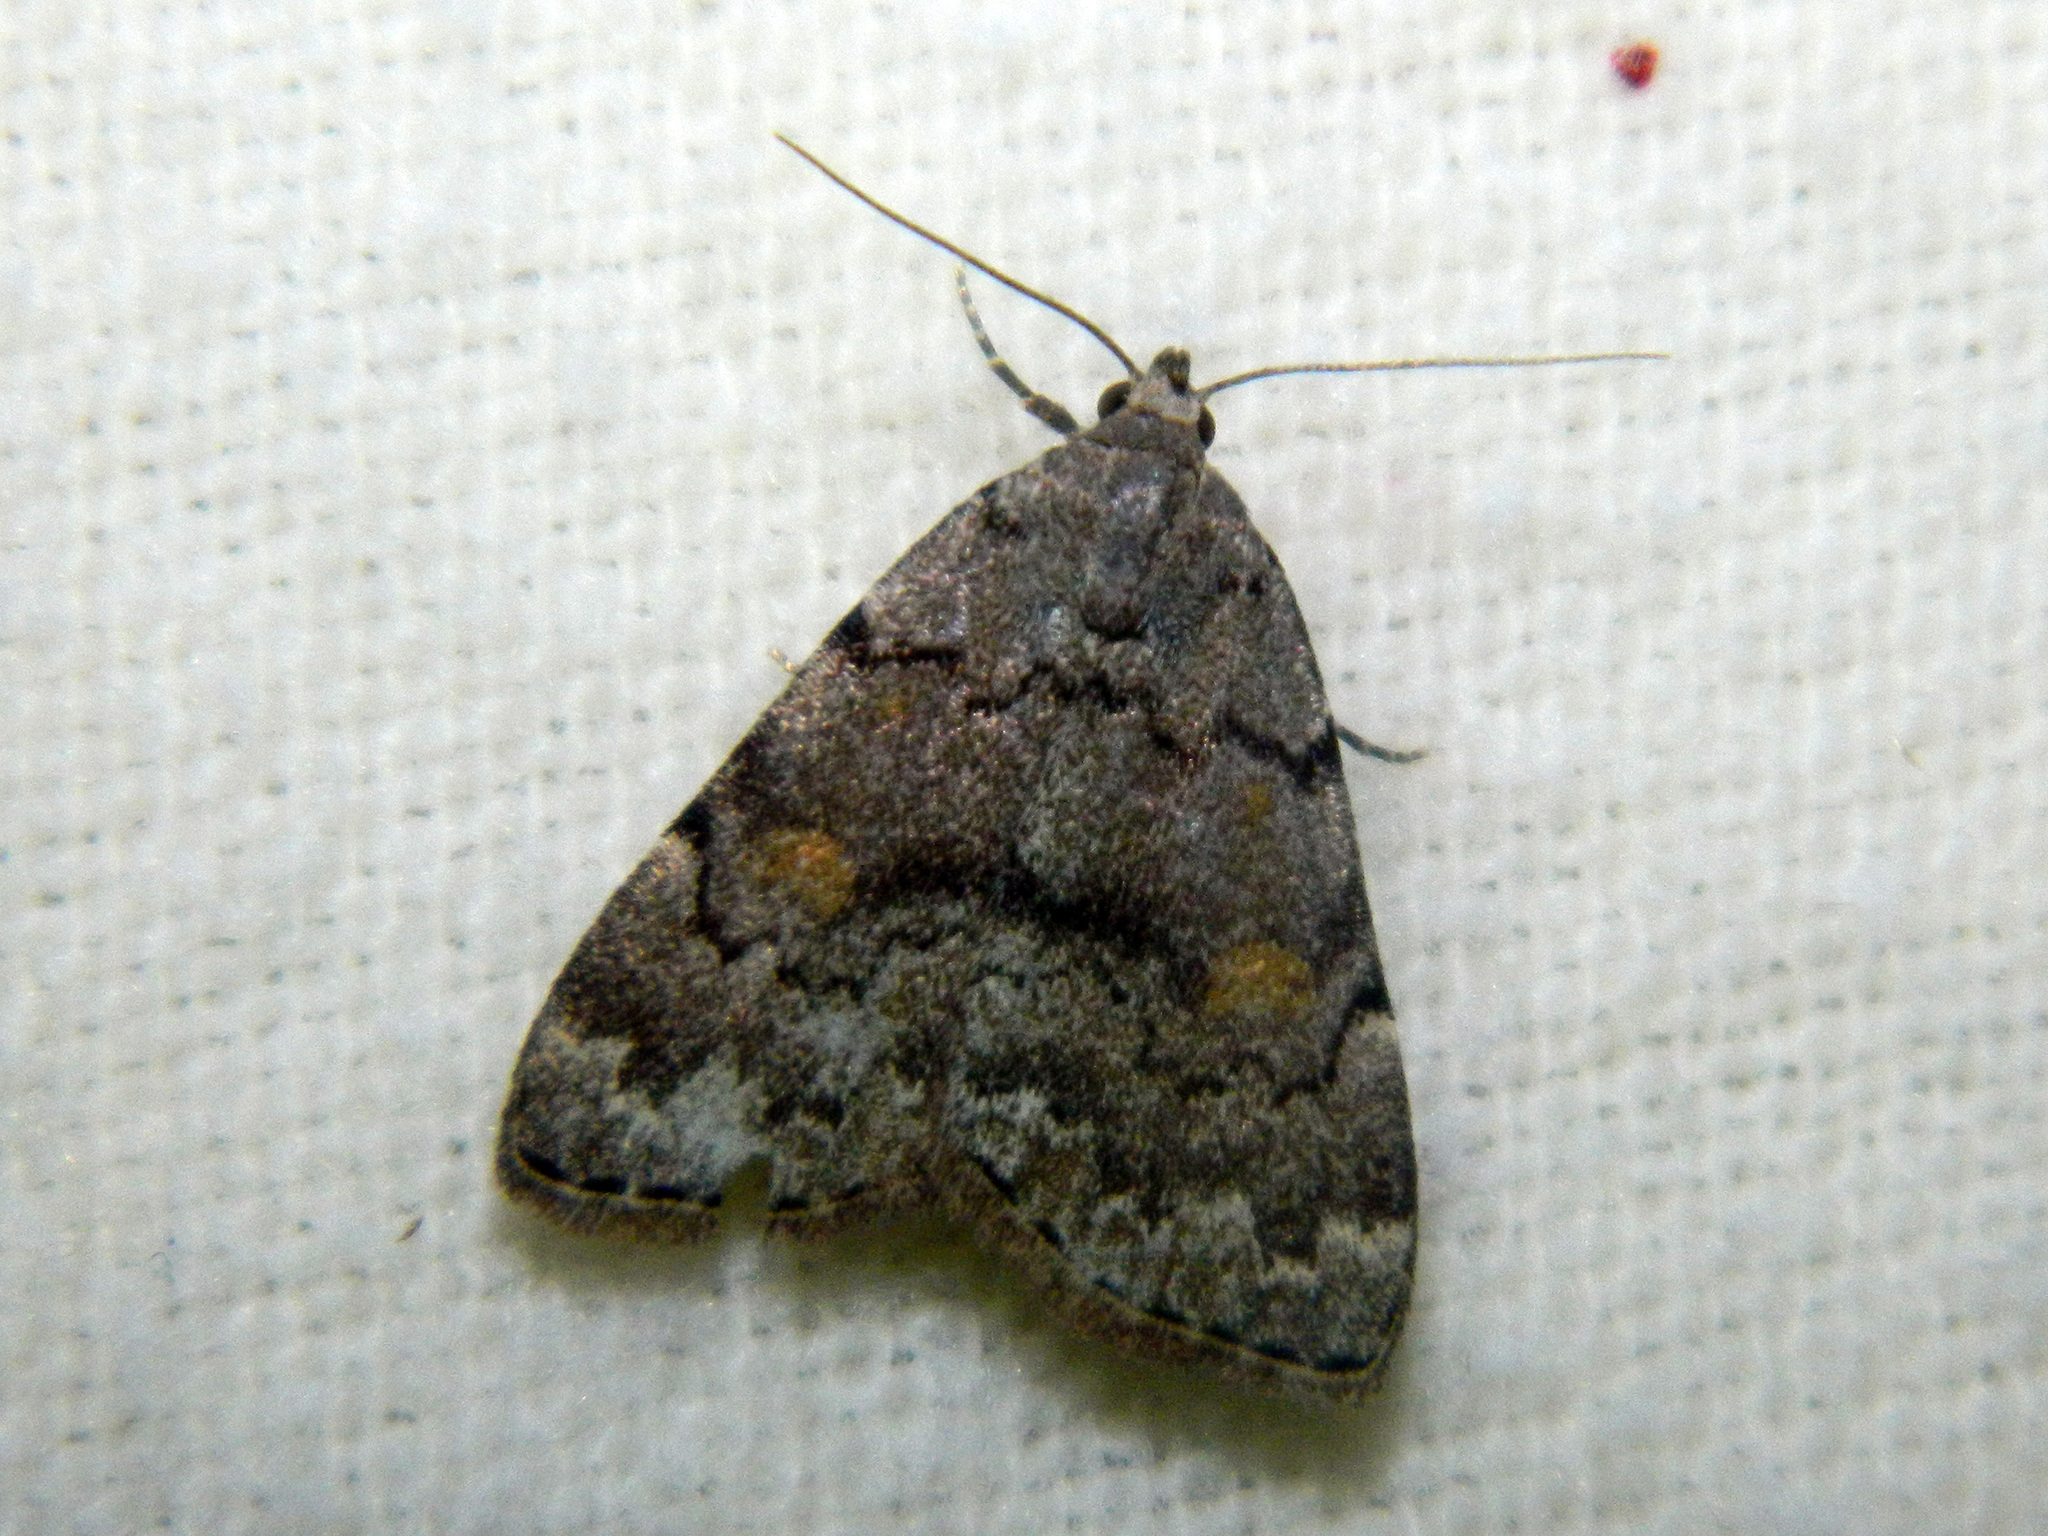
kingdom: Animalia
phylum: Arthropoda
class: Insecta
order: Lepidoptera
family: Erebidae
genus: Idia
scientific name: Idia aemula
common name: Common idia moth
